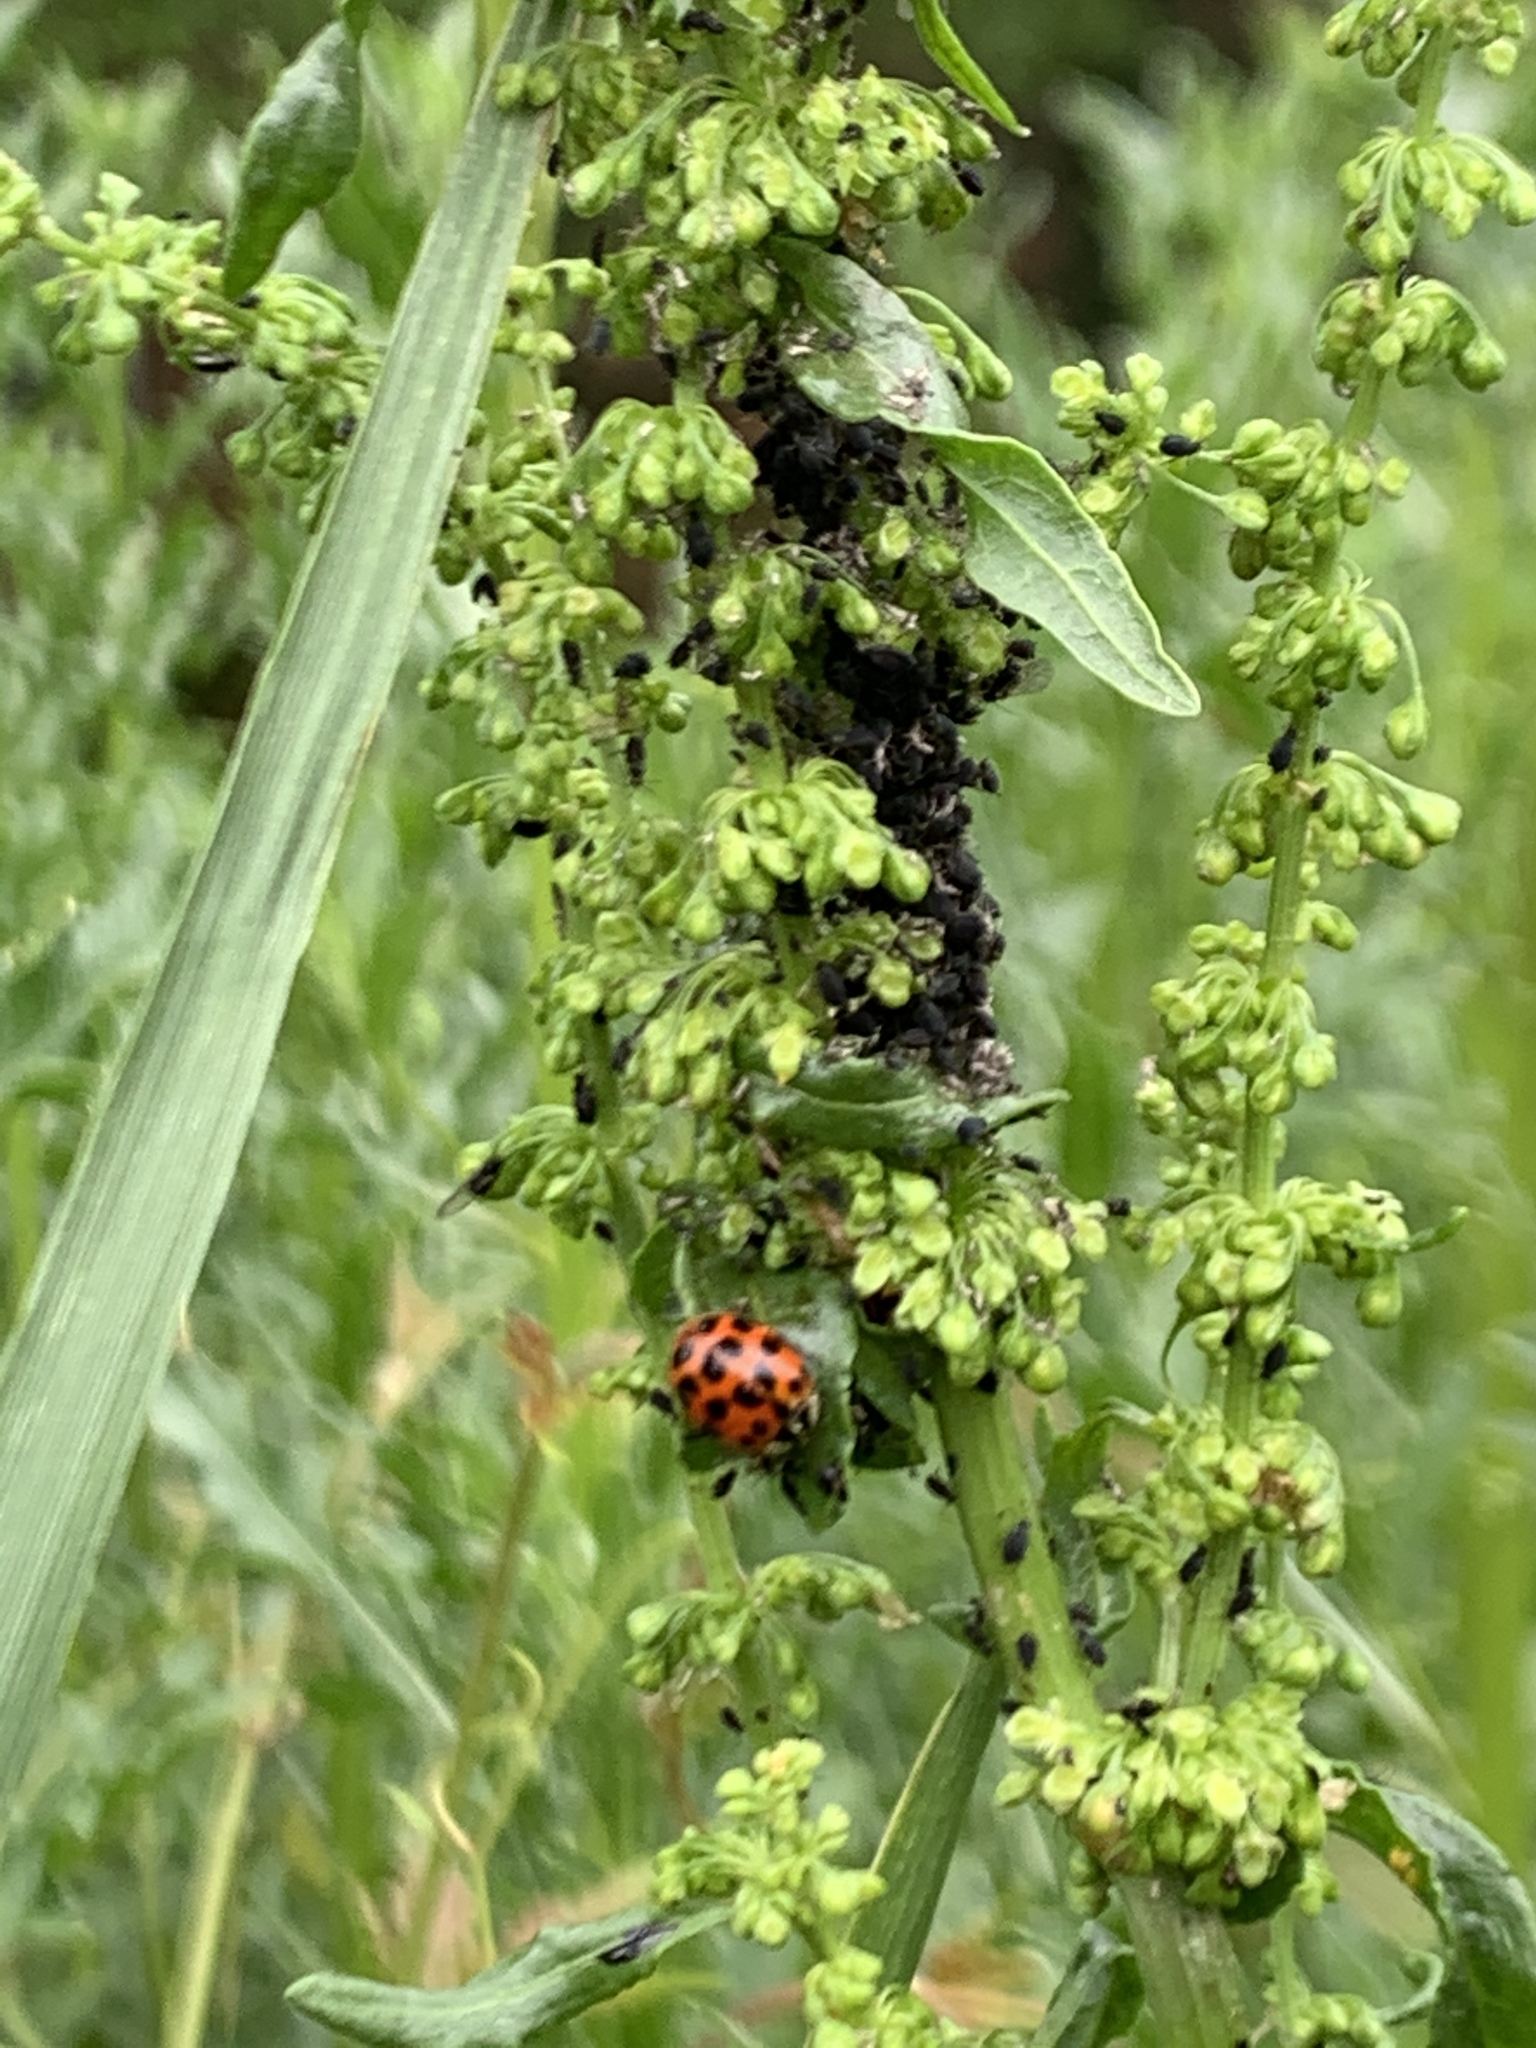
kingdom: Animalia
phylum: Arthropoda
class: Insecta
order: Coleoptera
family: Coccinellidae
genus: Harmonia
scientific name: Harmonia axyridis
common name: Harlequin ladybird
